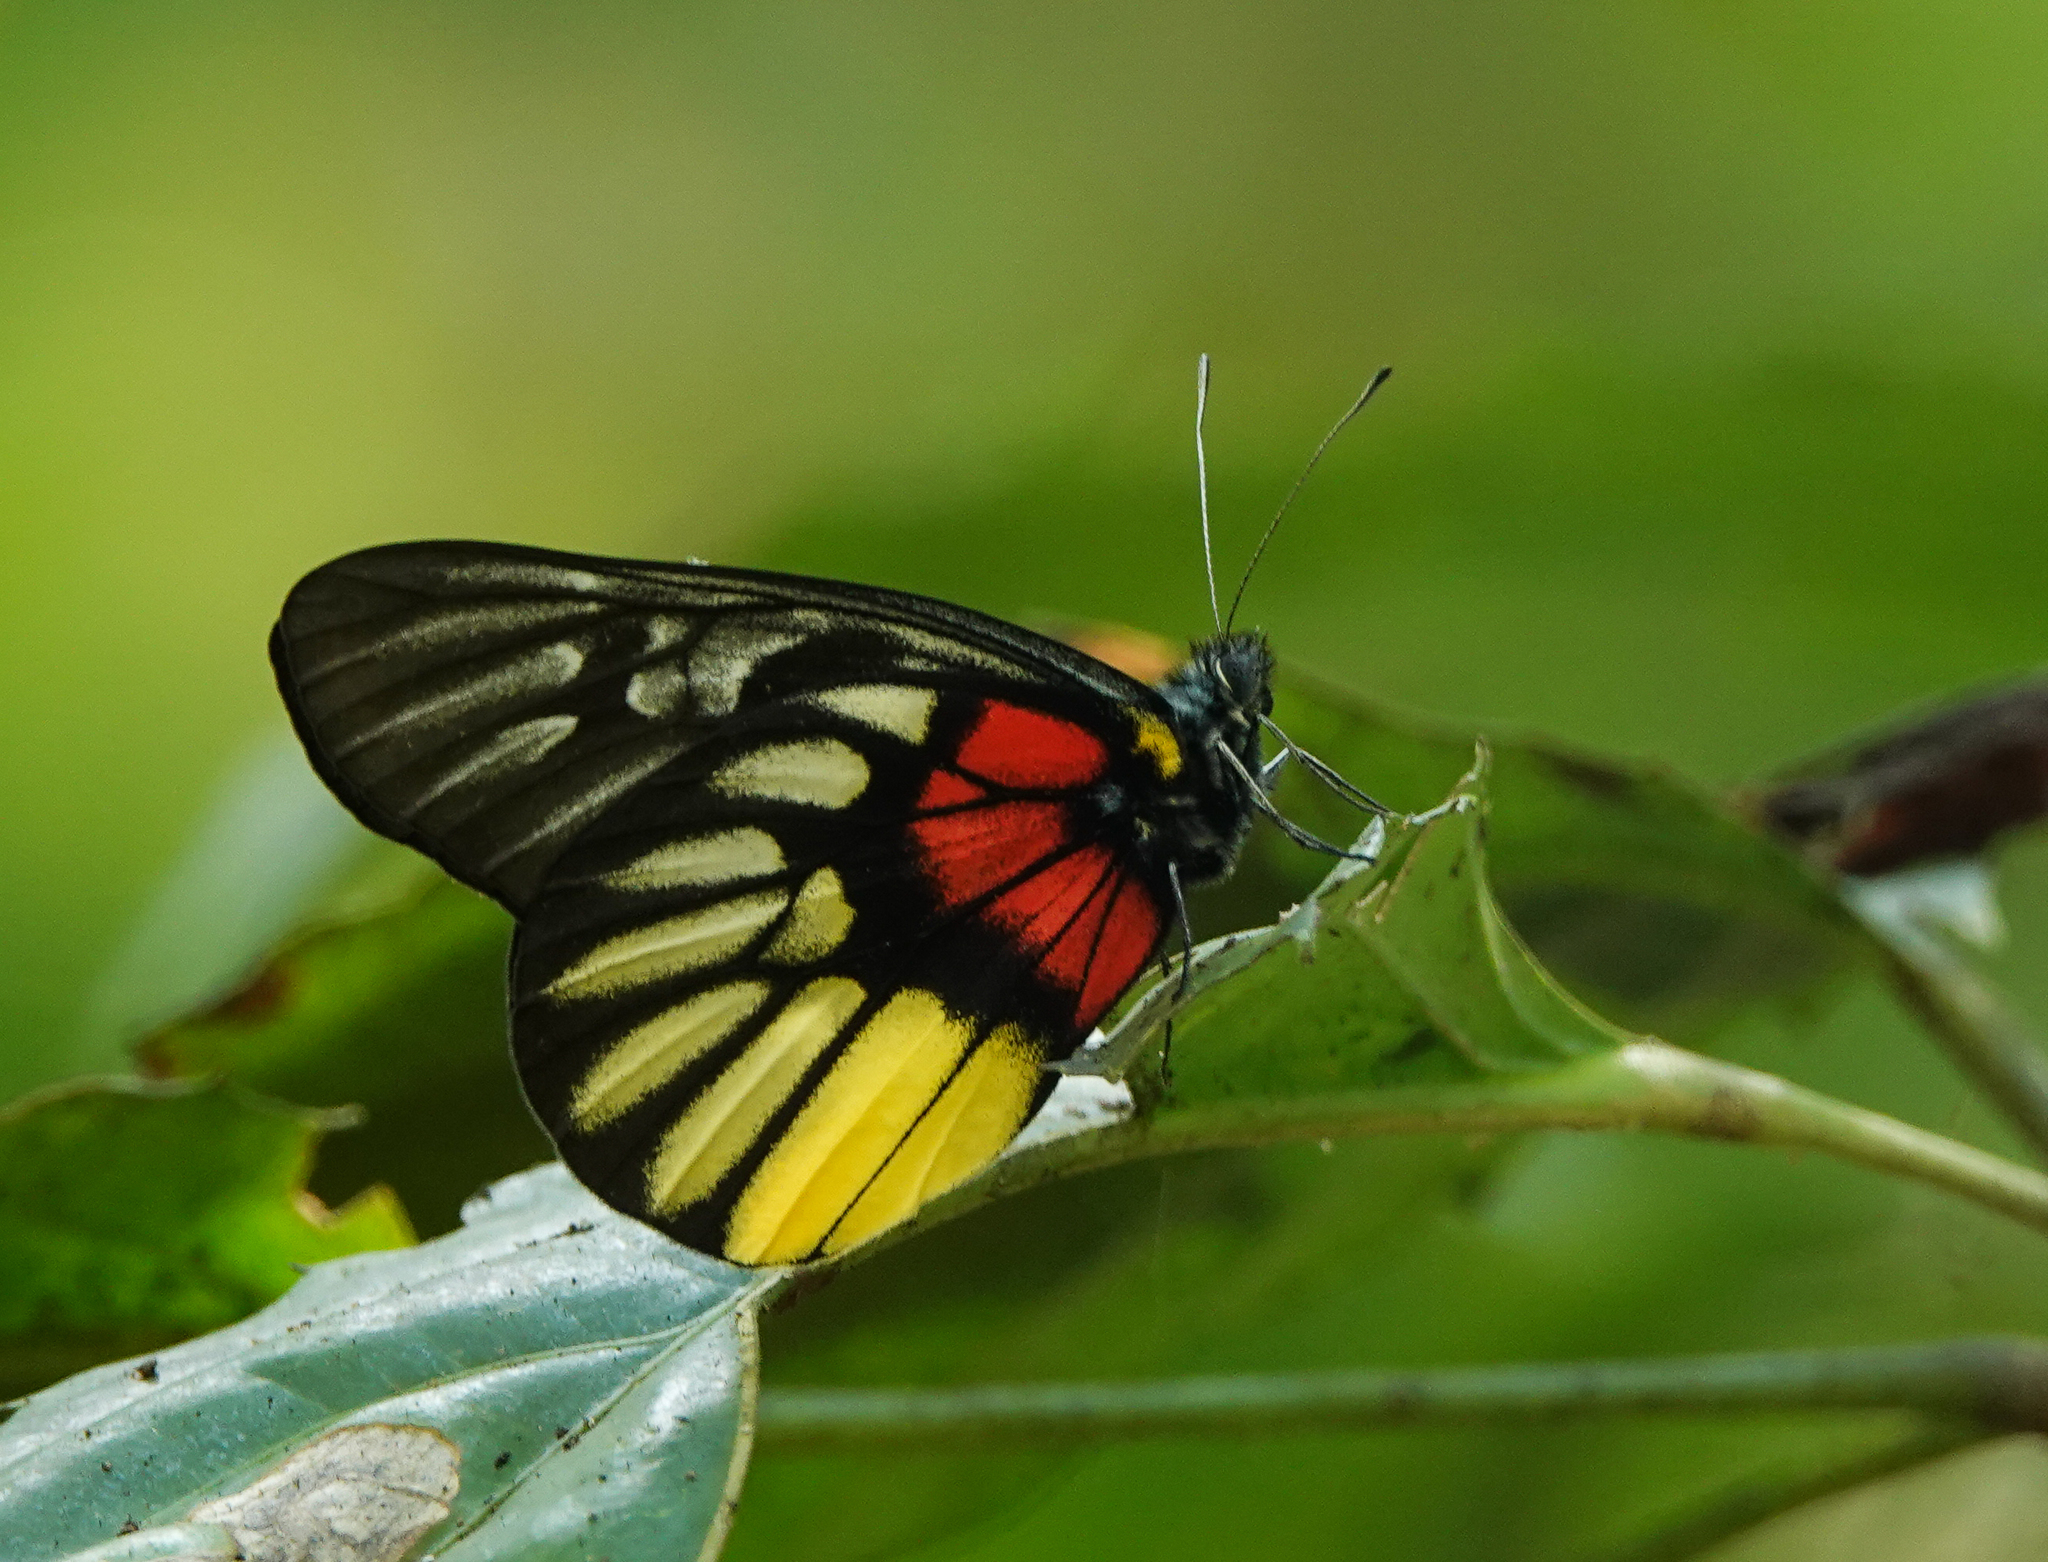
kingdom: Animalia
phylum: Arthropoda
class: Insecta
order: Lepidoptera
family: Pieridae
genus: Delias
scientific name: Delias acalis
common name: Red-breast jezebel
